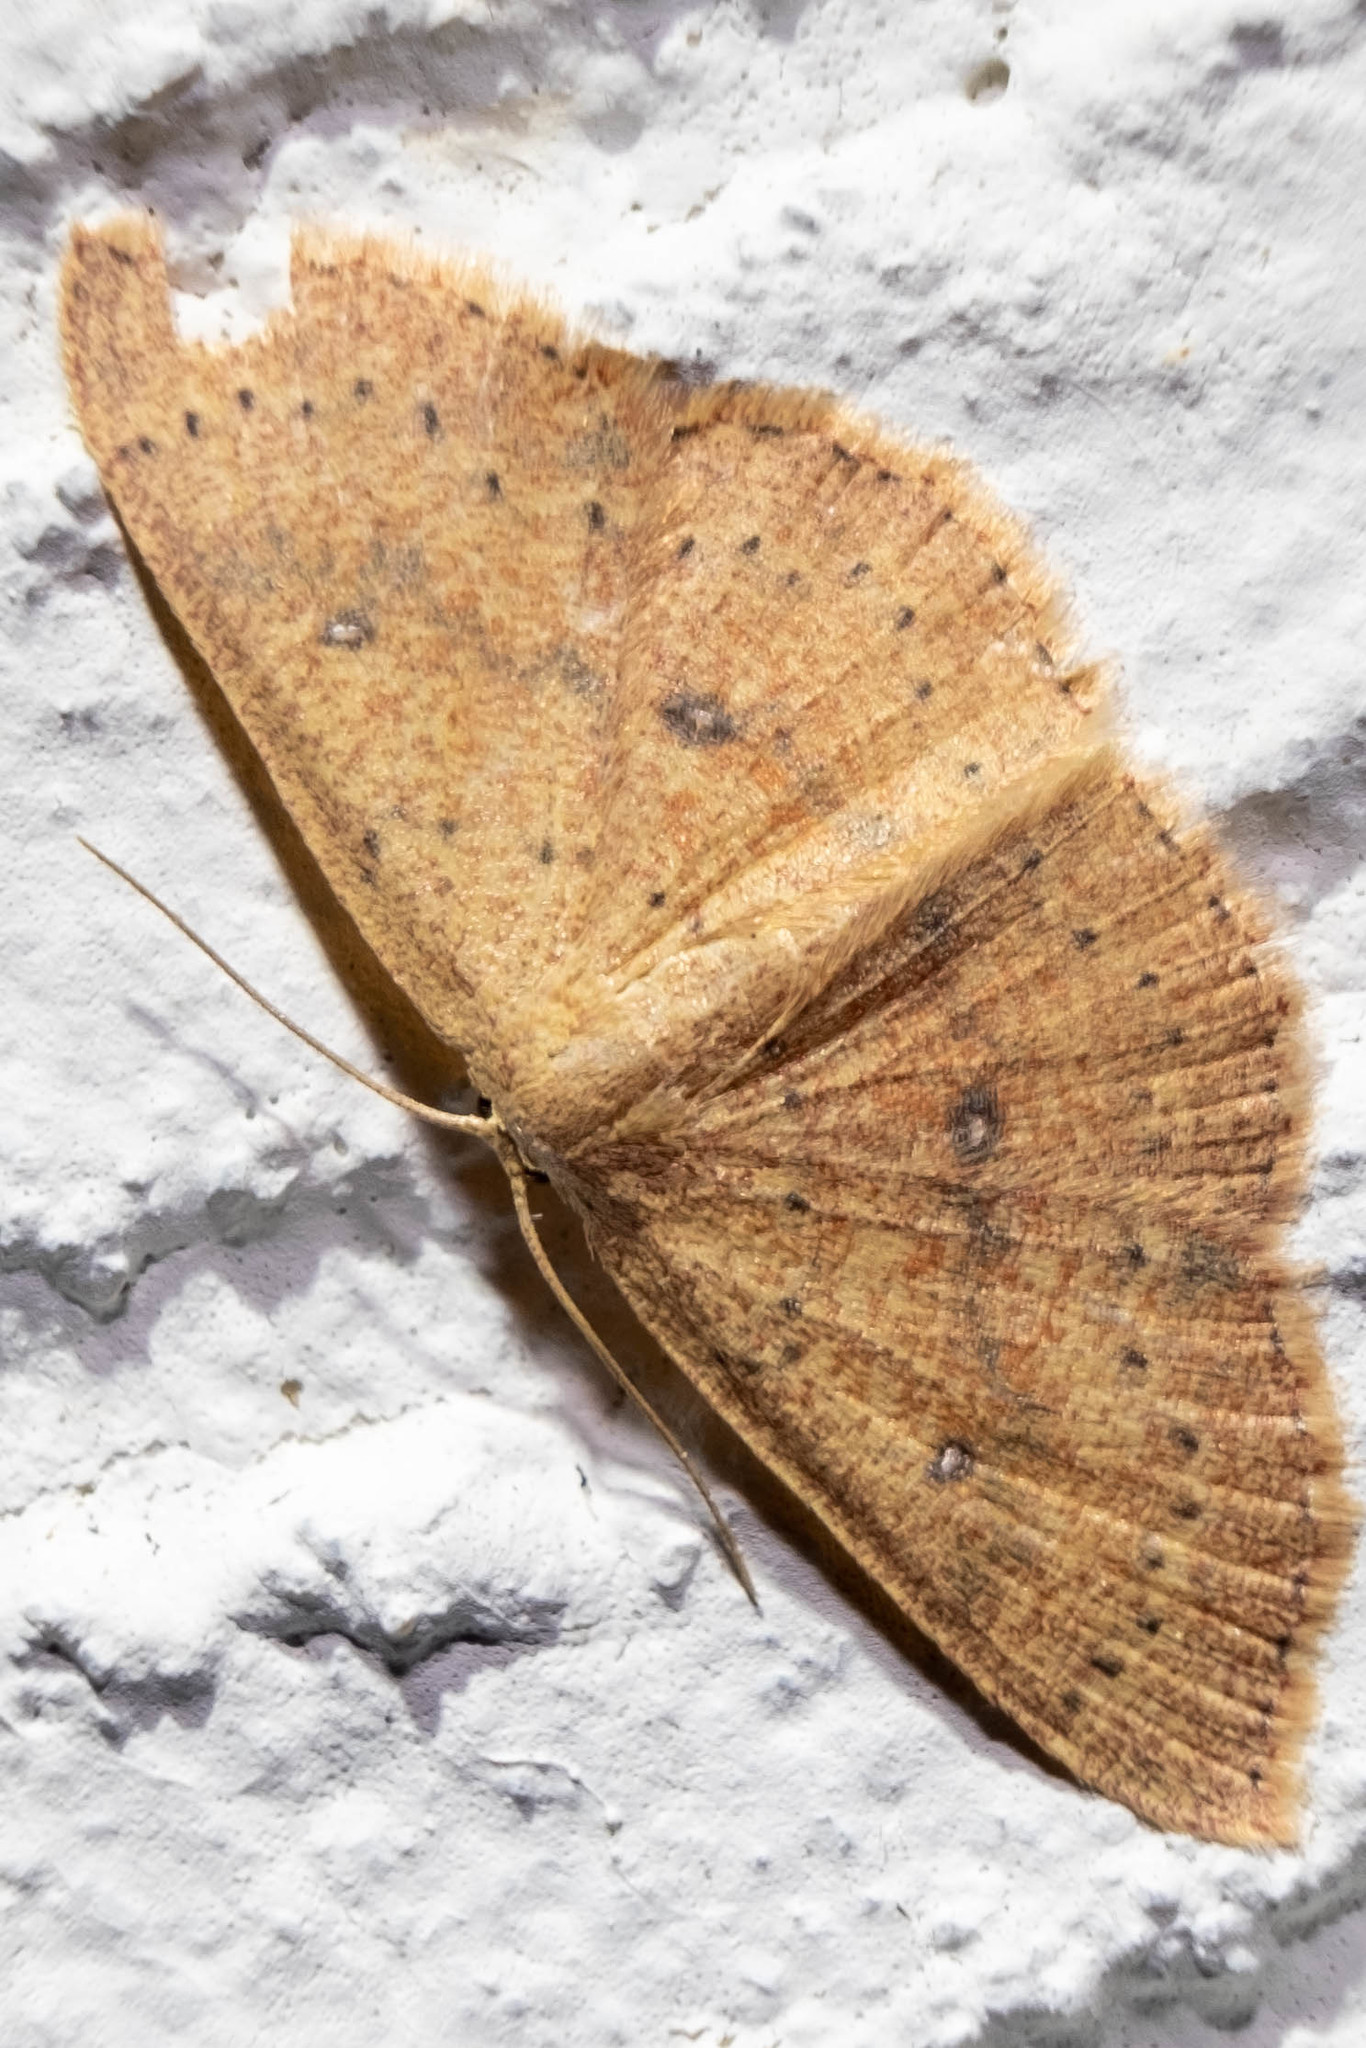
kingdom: Animalia
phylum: Arthropoda
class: Insecta
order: Lepidoptera
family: Geometridae
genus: Cyclophora
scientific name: Cyclophora packardi
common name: Packard's wave
